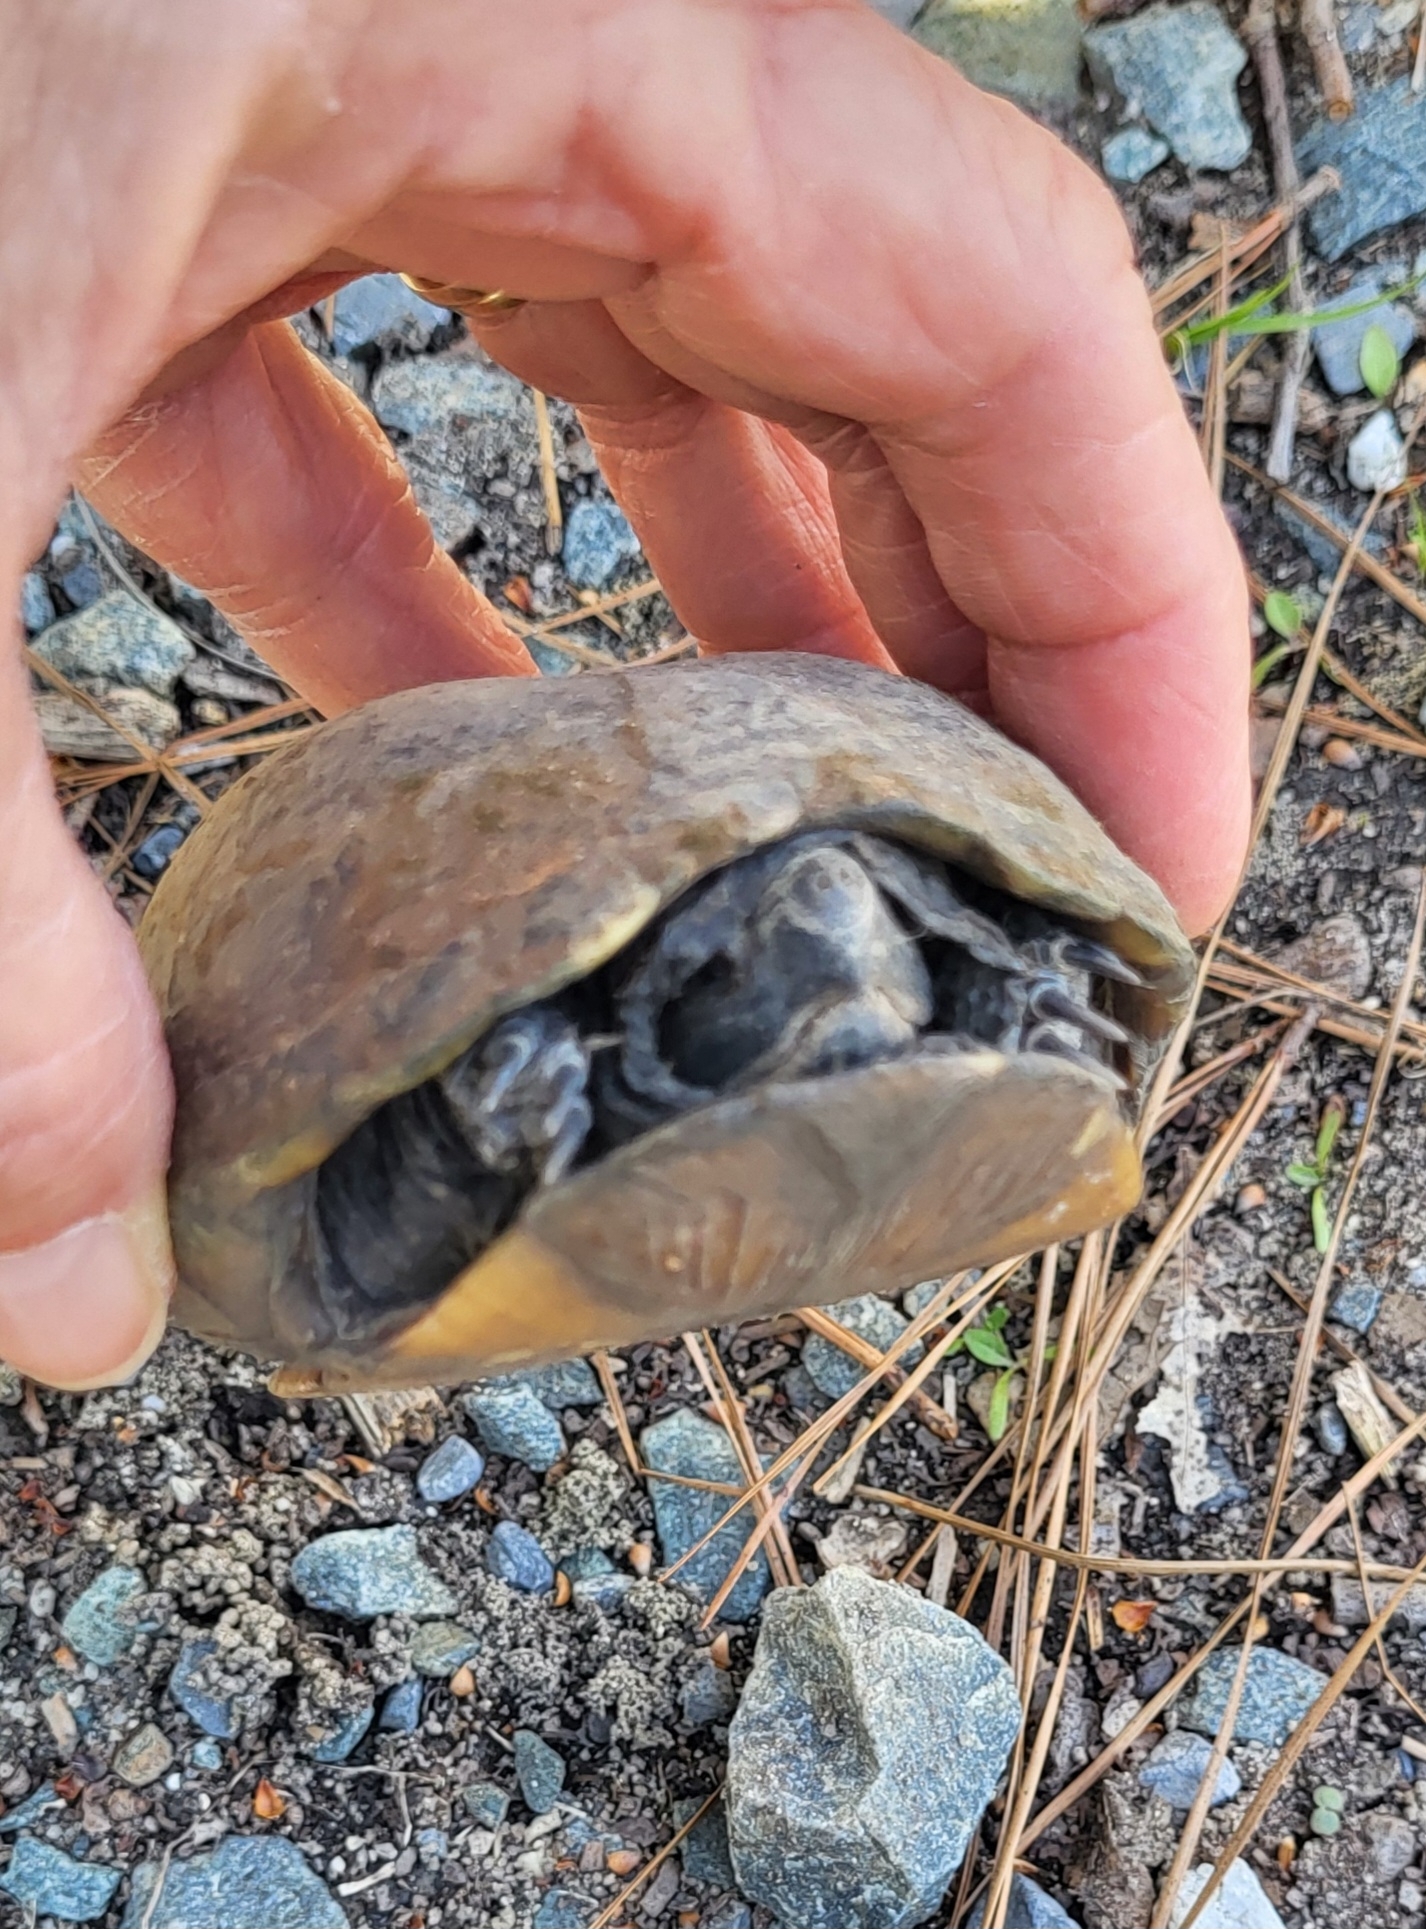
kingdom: Animalia
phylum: Chordata
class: Testudines
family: Kinosternidae
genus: Kinosternon
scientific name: Kinosternon subrubrum
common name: Eastern mud turtle
